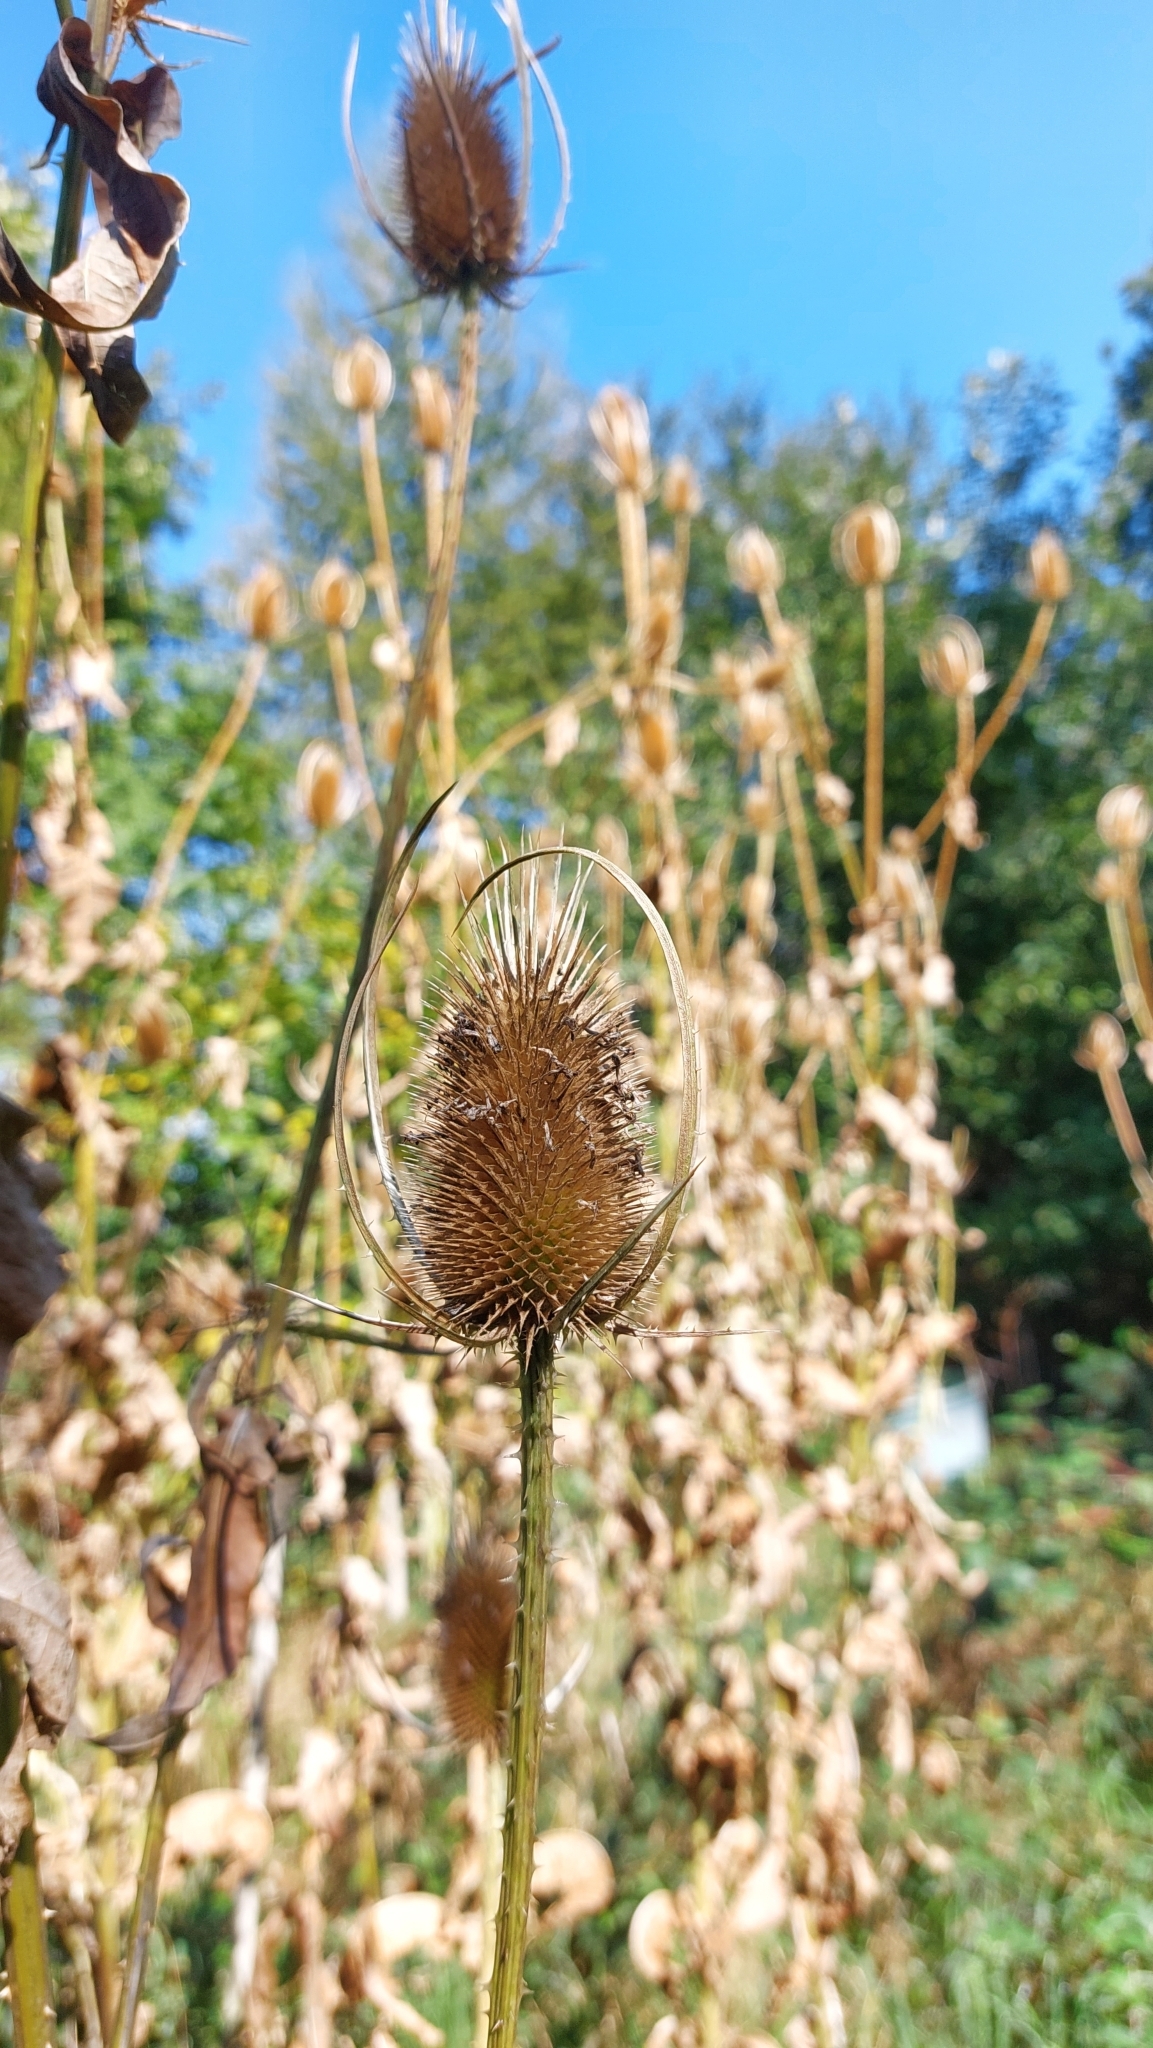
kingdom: Plantae
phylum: Tracheophyta
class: Magnoliopsida
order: Dipsacales
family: Caprifoliaceae
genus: Dipsacus
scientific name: Dipsacus fullonum
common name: Teasel
